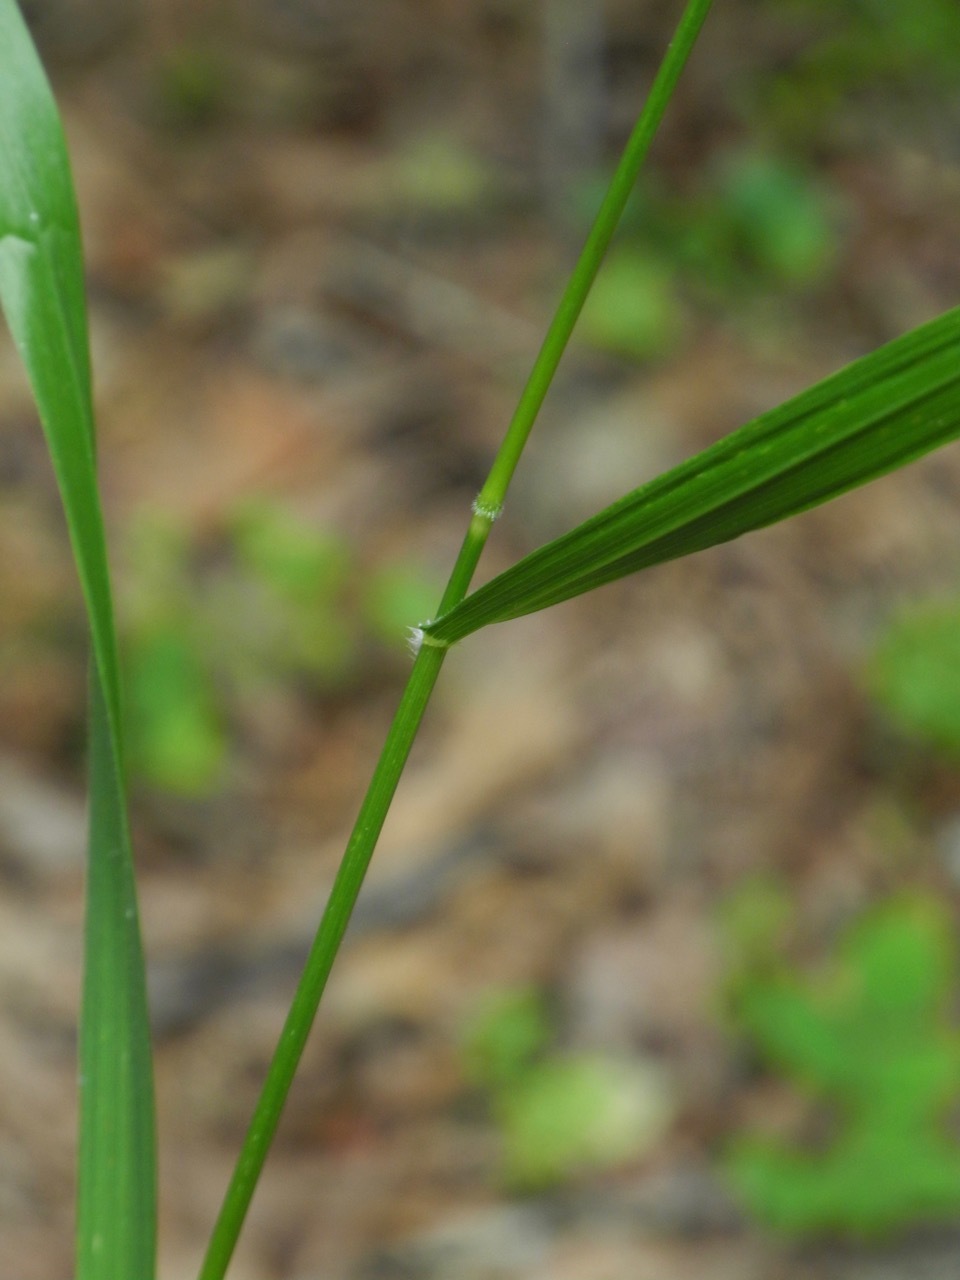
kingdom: Plantae
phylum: Tracheophyta
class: Liliopsida
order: Poales
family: Poaceae
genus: Bromus
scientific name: Bromus nottowayanus
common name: Nottoway valley brome
